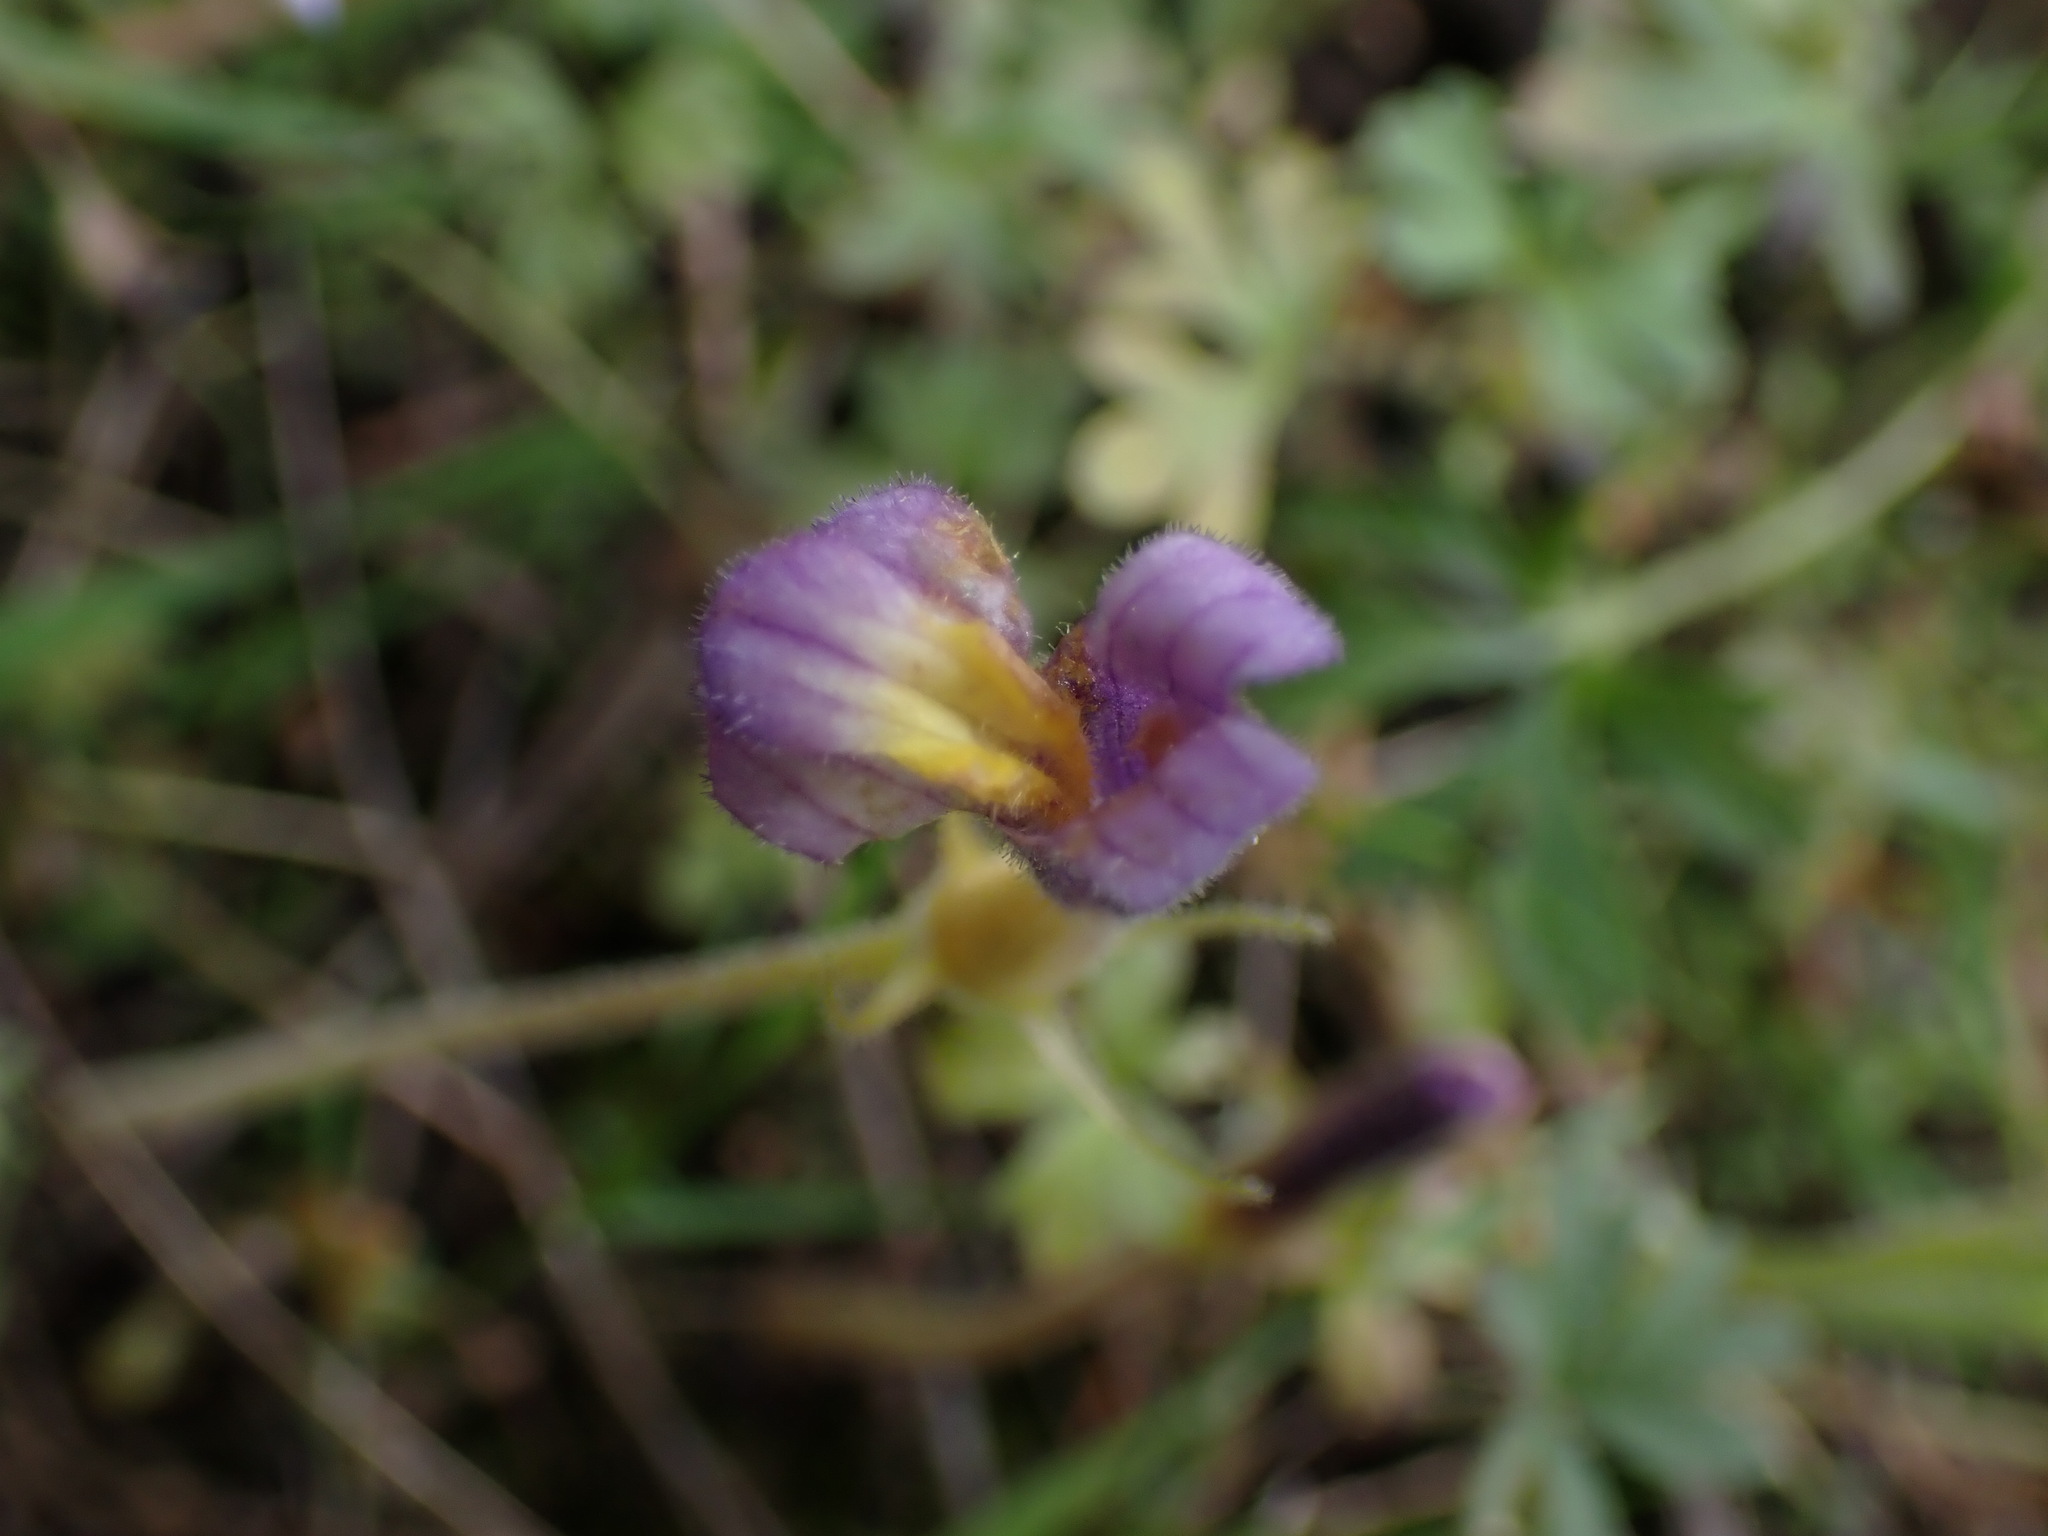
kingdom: Plantae
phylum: Tracheophyta
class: Magnoliopsida
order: Lamiales
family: Orobanchaceae
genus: Aphyllon
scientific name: Aphyllon uniflorum
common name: One-flowered broomrape
